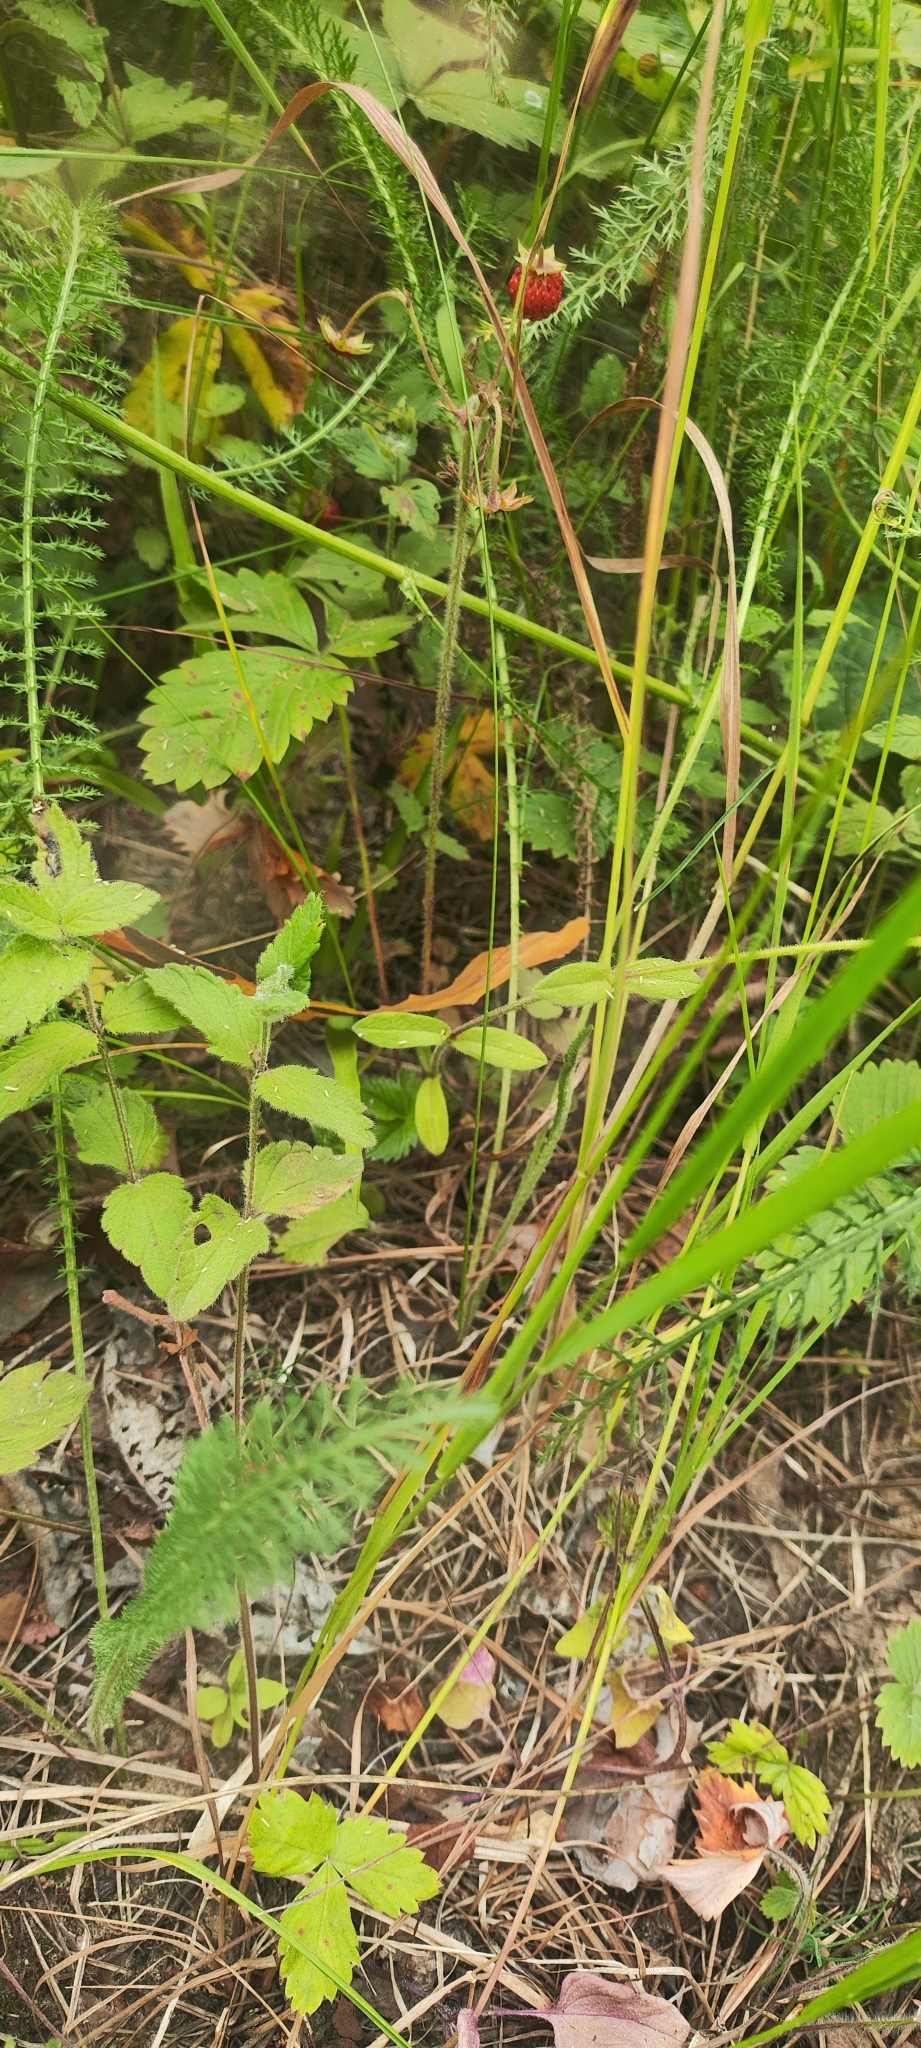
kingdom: Plantae
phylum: Tracheophyta
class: Magnoliopsida
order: Rosales
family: Rosaceae
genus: Fragaria
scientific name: Fragaria vesca
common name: Wild strawberry
